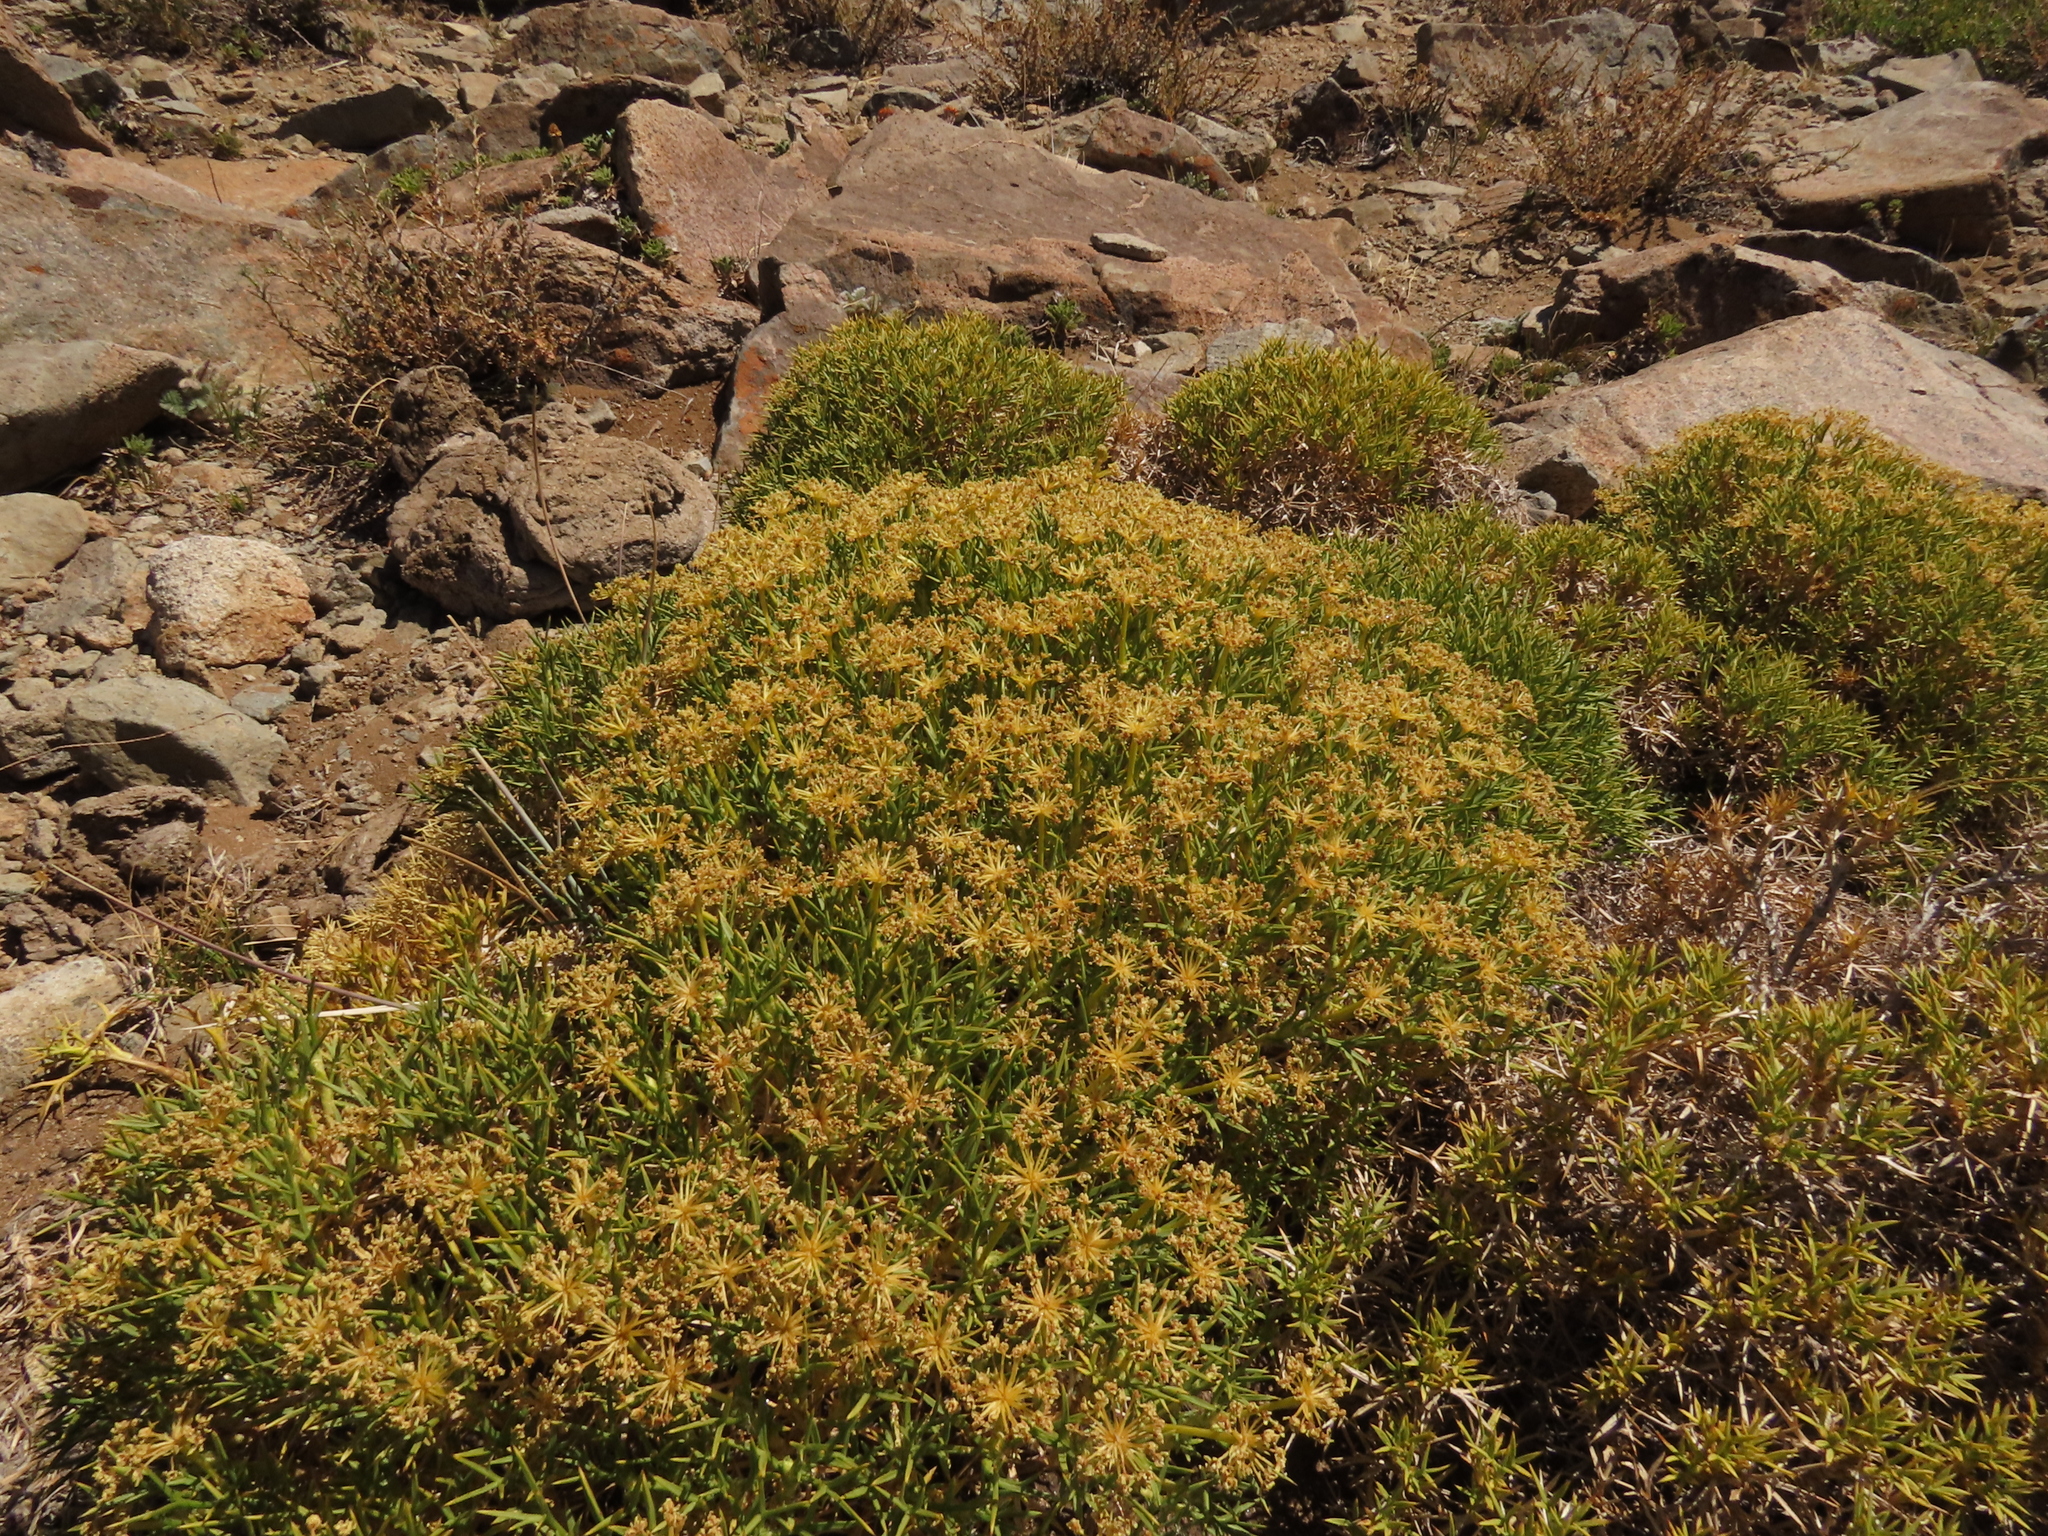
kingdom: Plantae
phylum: Tracheophyta
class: Magnoliopsida
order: Apiales
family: Apiaceae
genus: Azorella
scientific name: Azorella prolifera
